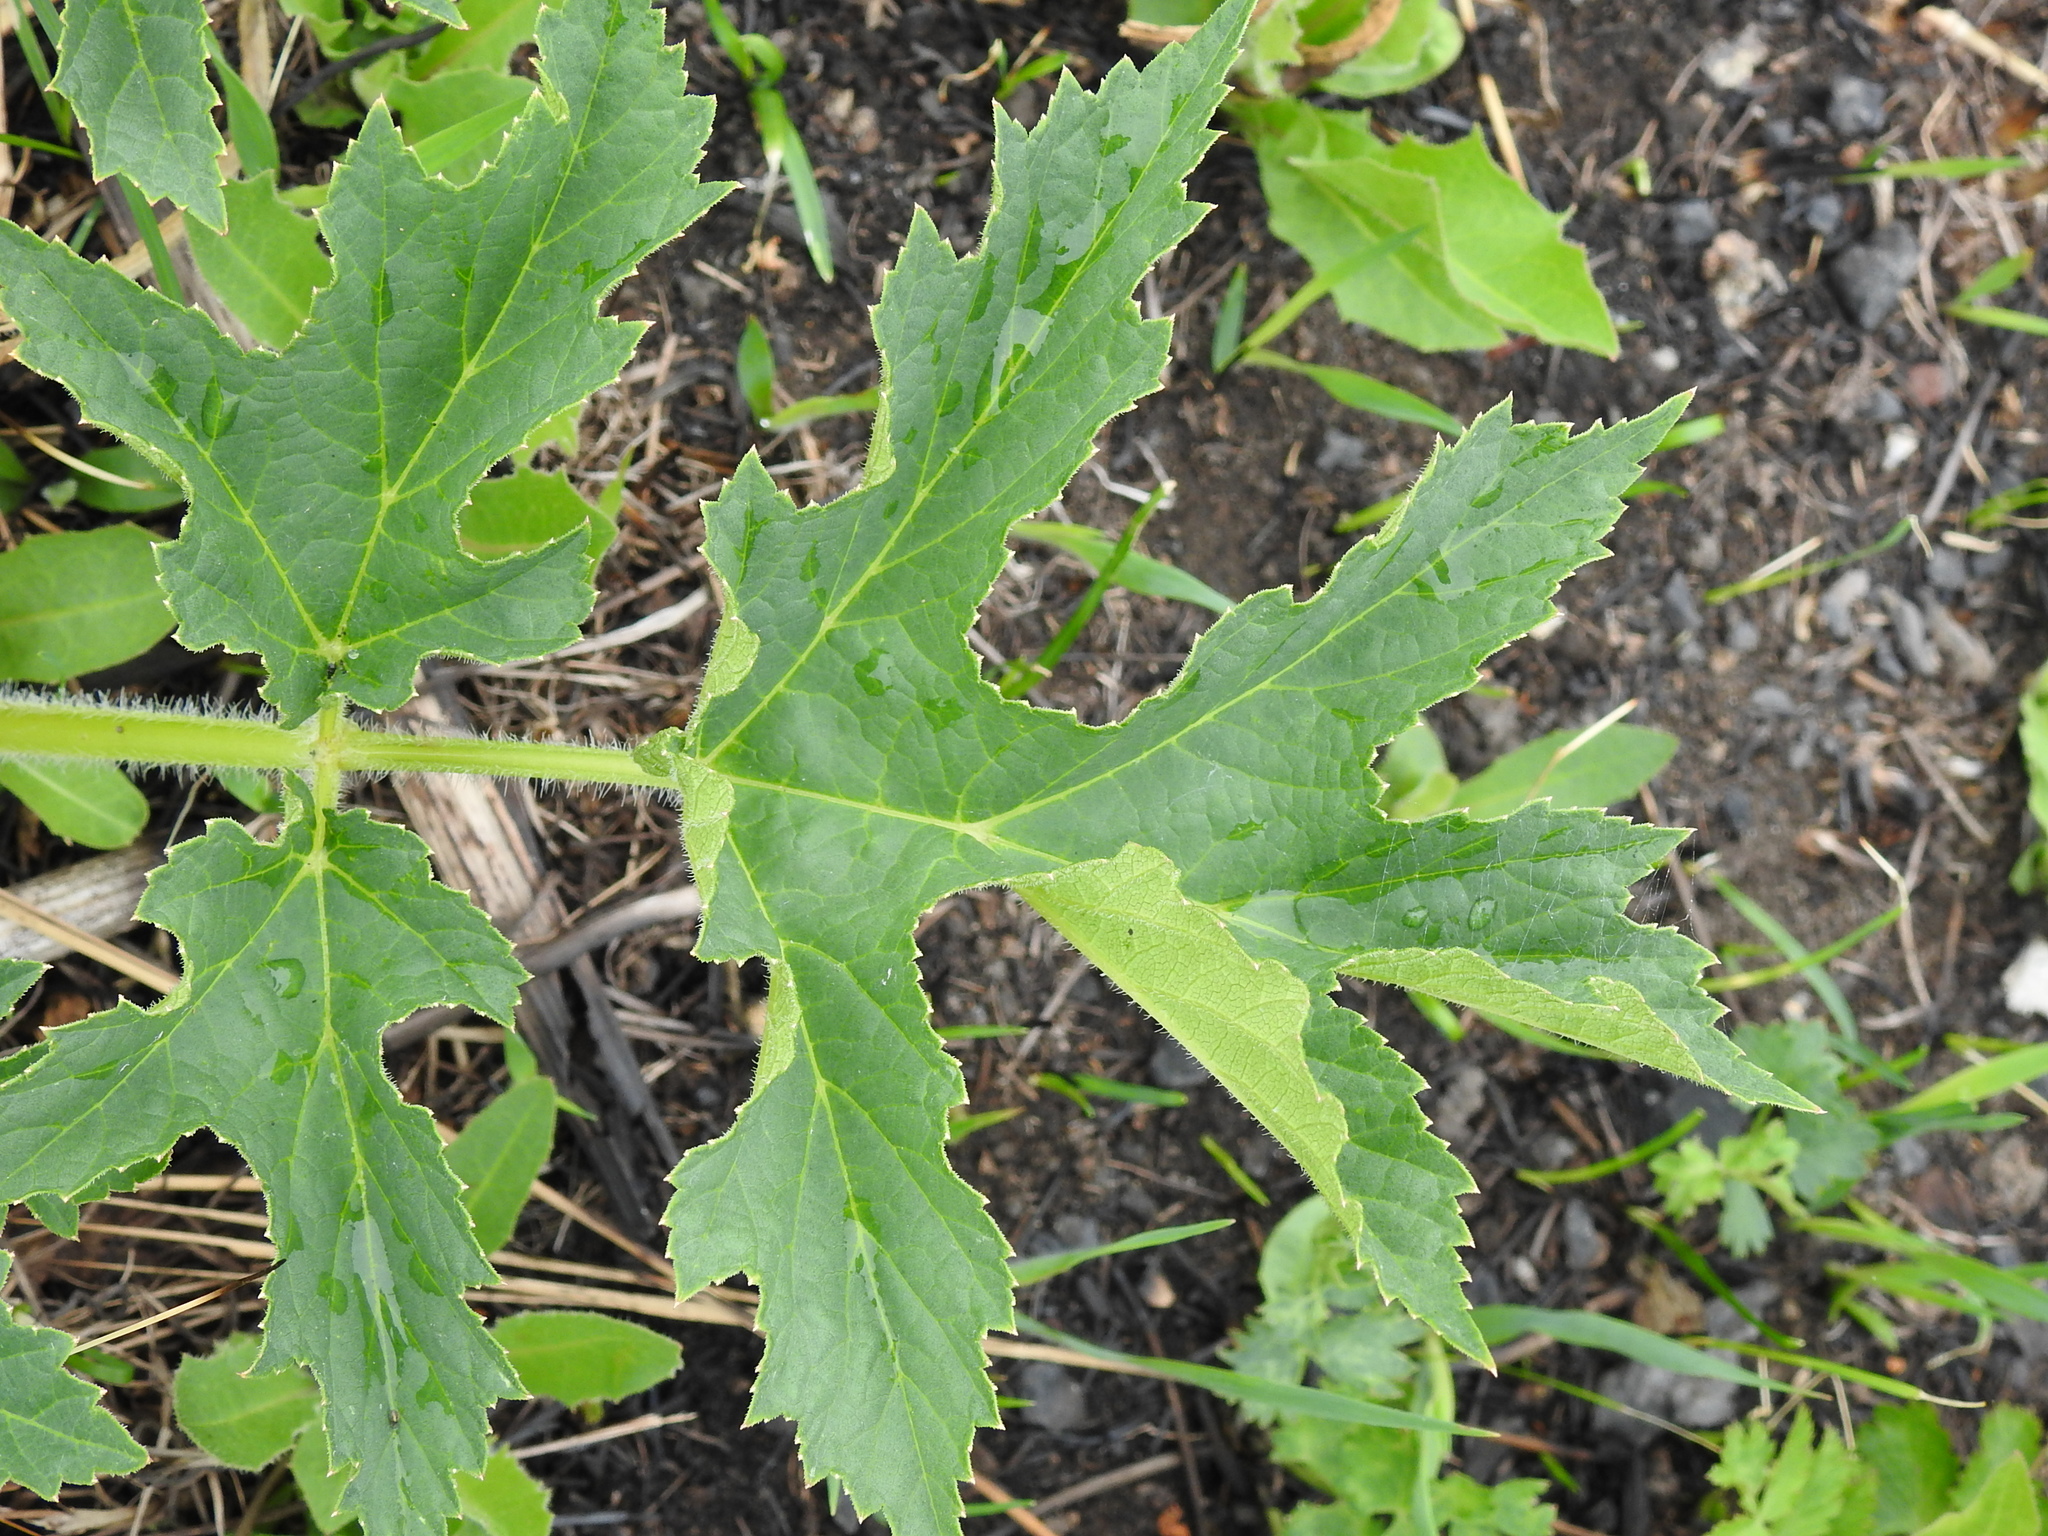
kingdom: Plantae
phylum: Tracheophyta
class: Magnoliopsida
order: Apiales
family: Apiaceae
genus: Heracleum
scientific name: Heracleum sphondylium
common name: Hogweed
